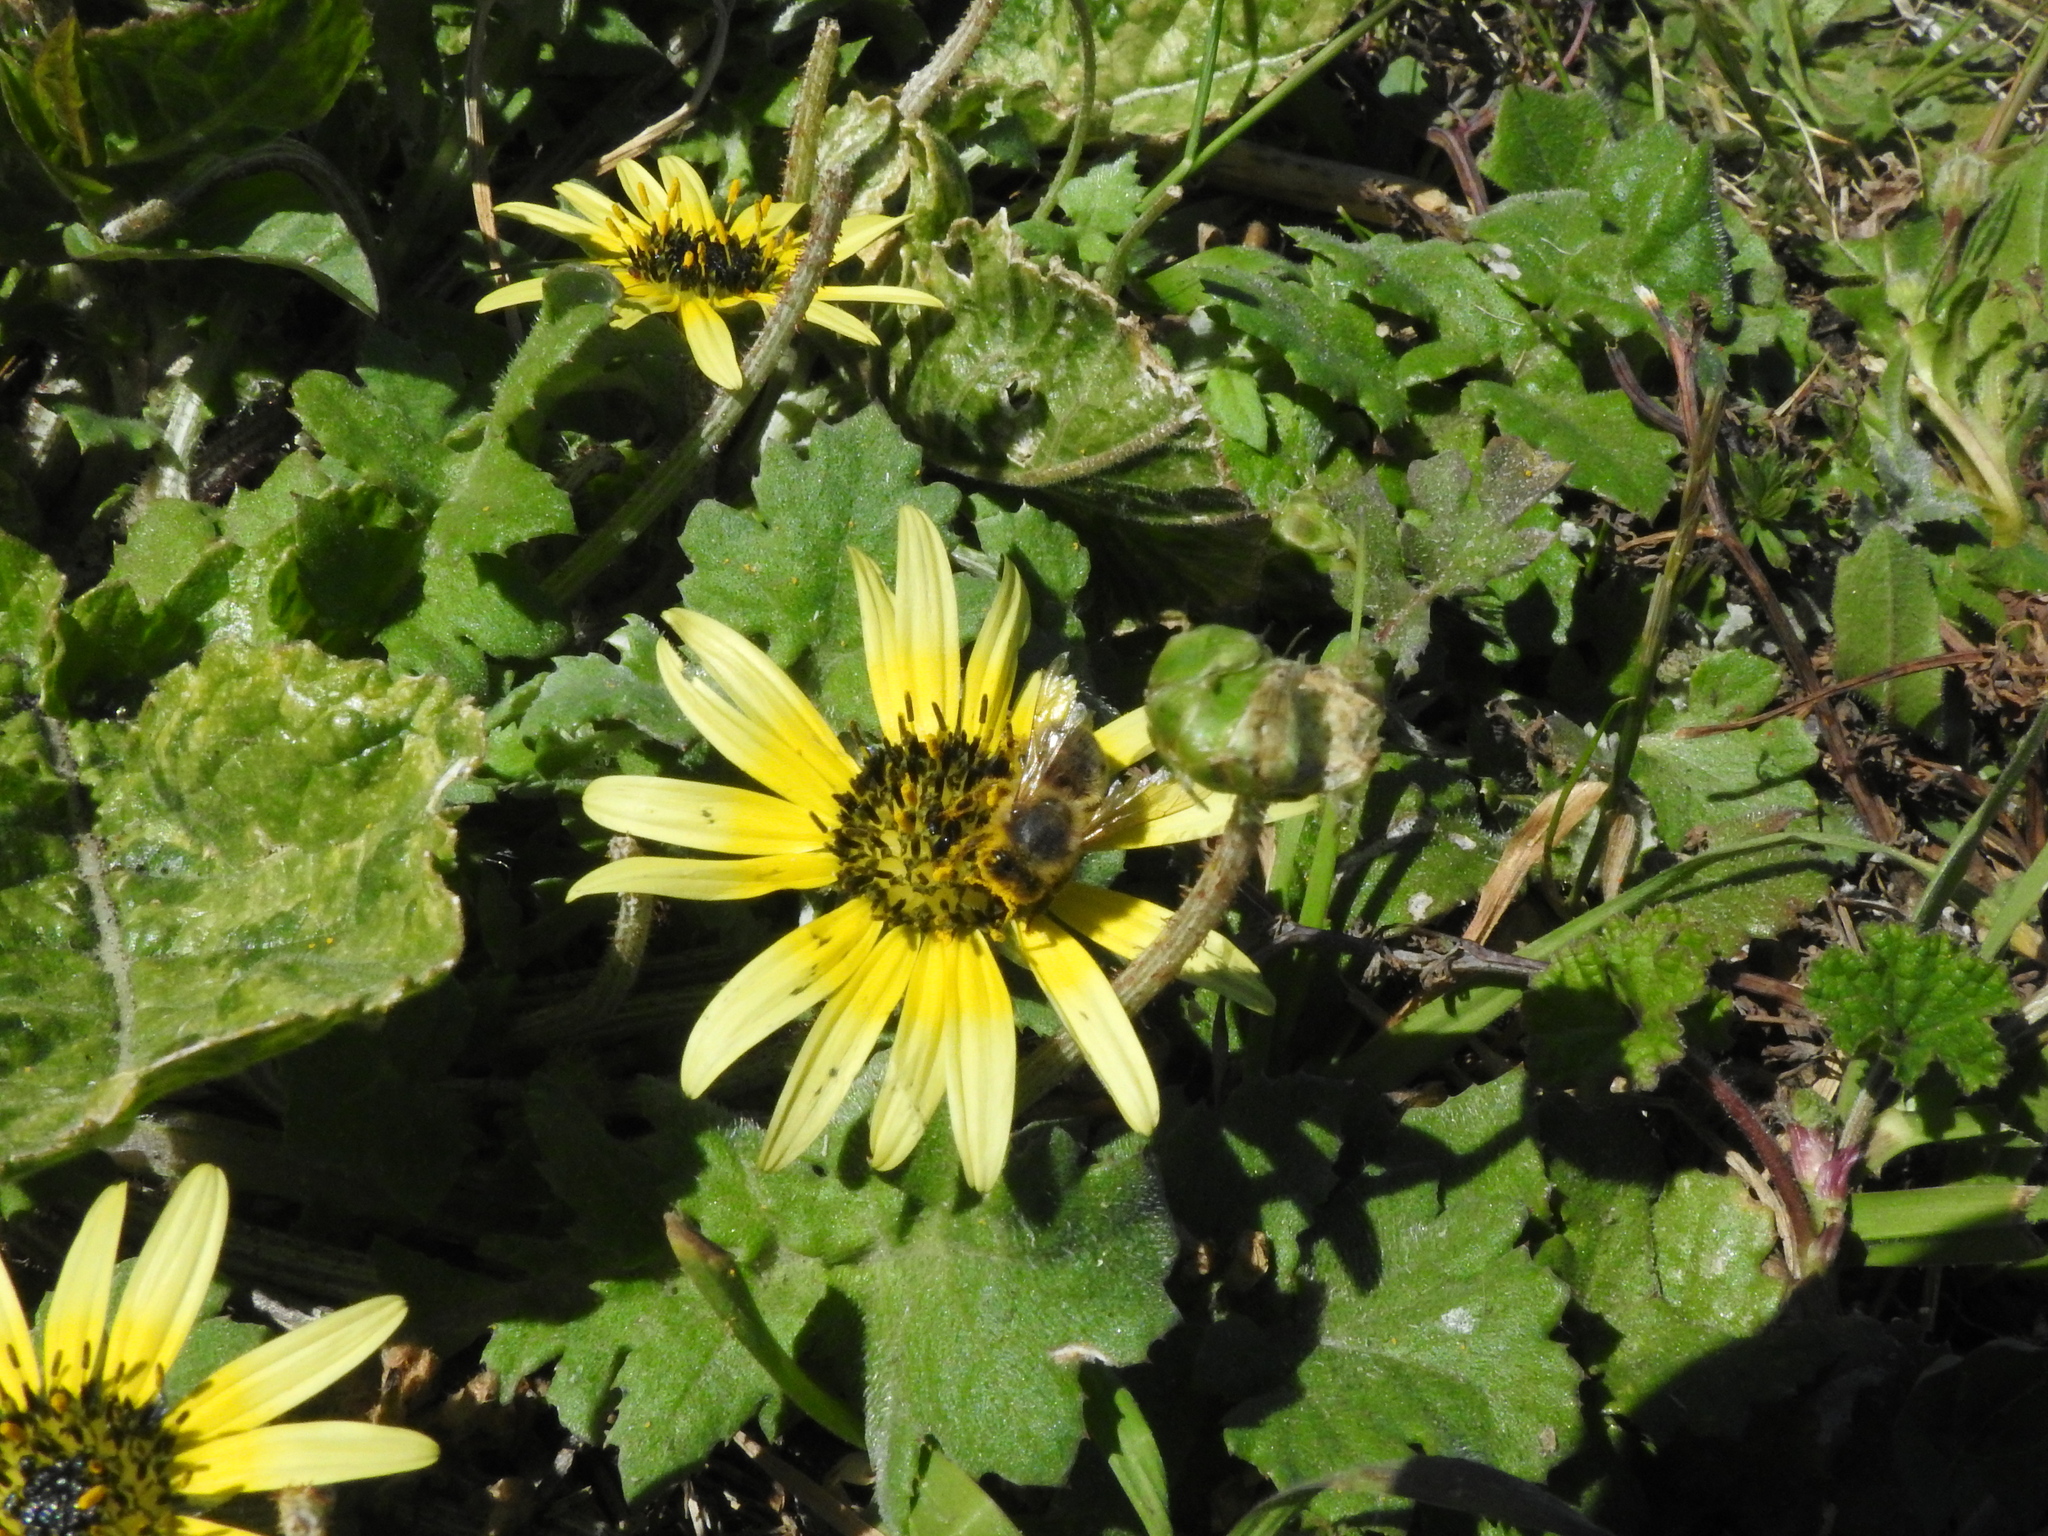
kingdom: Animalia
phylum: Arthropoda
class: Insecta
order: Hymenoptera
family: Apidae
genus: Apis
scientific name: Apis mellifera
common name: Honey bee
